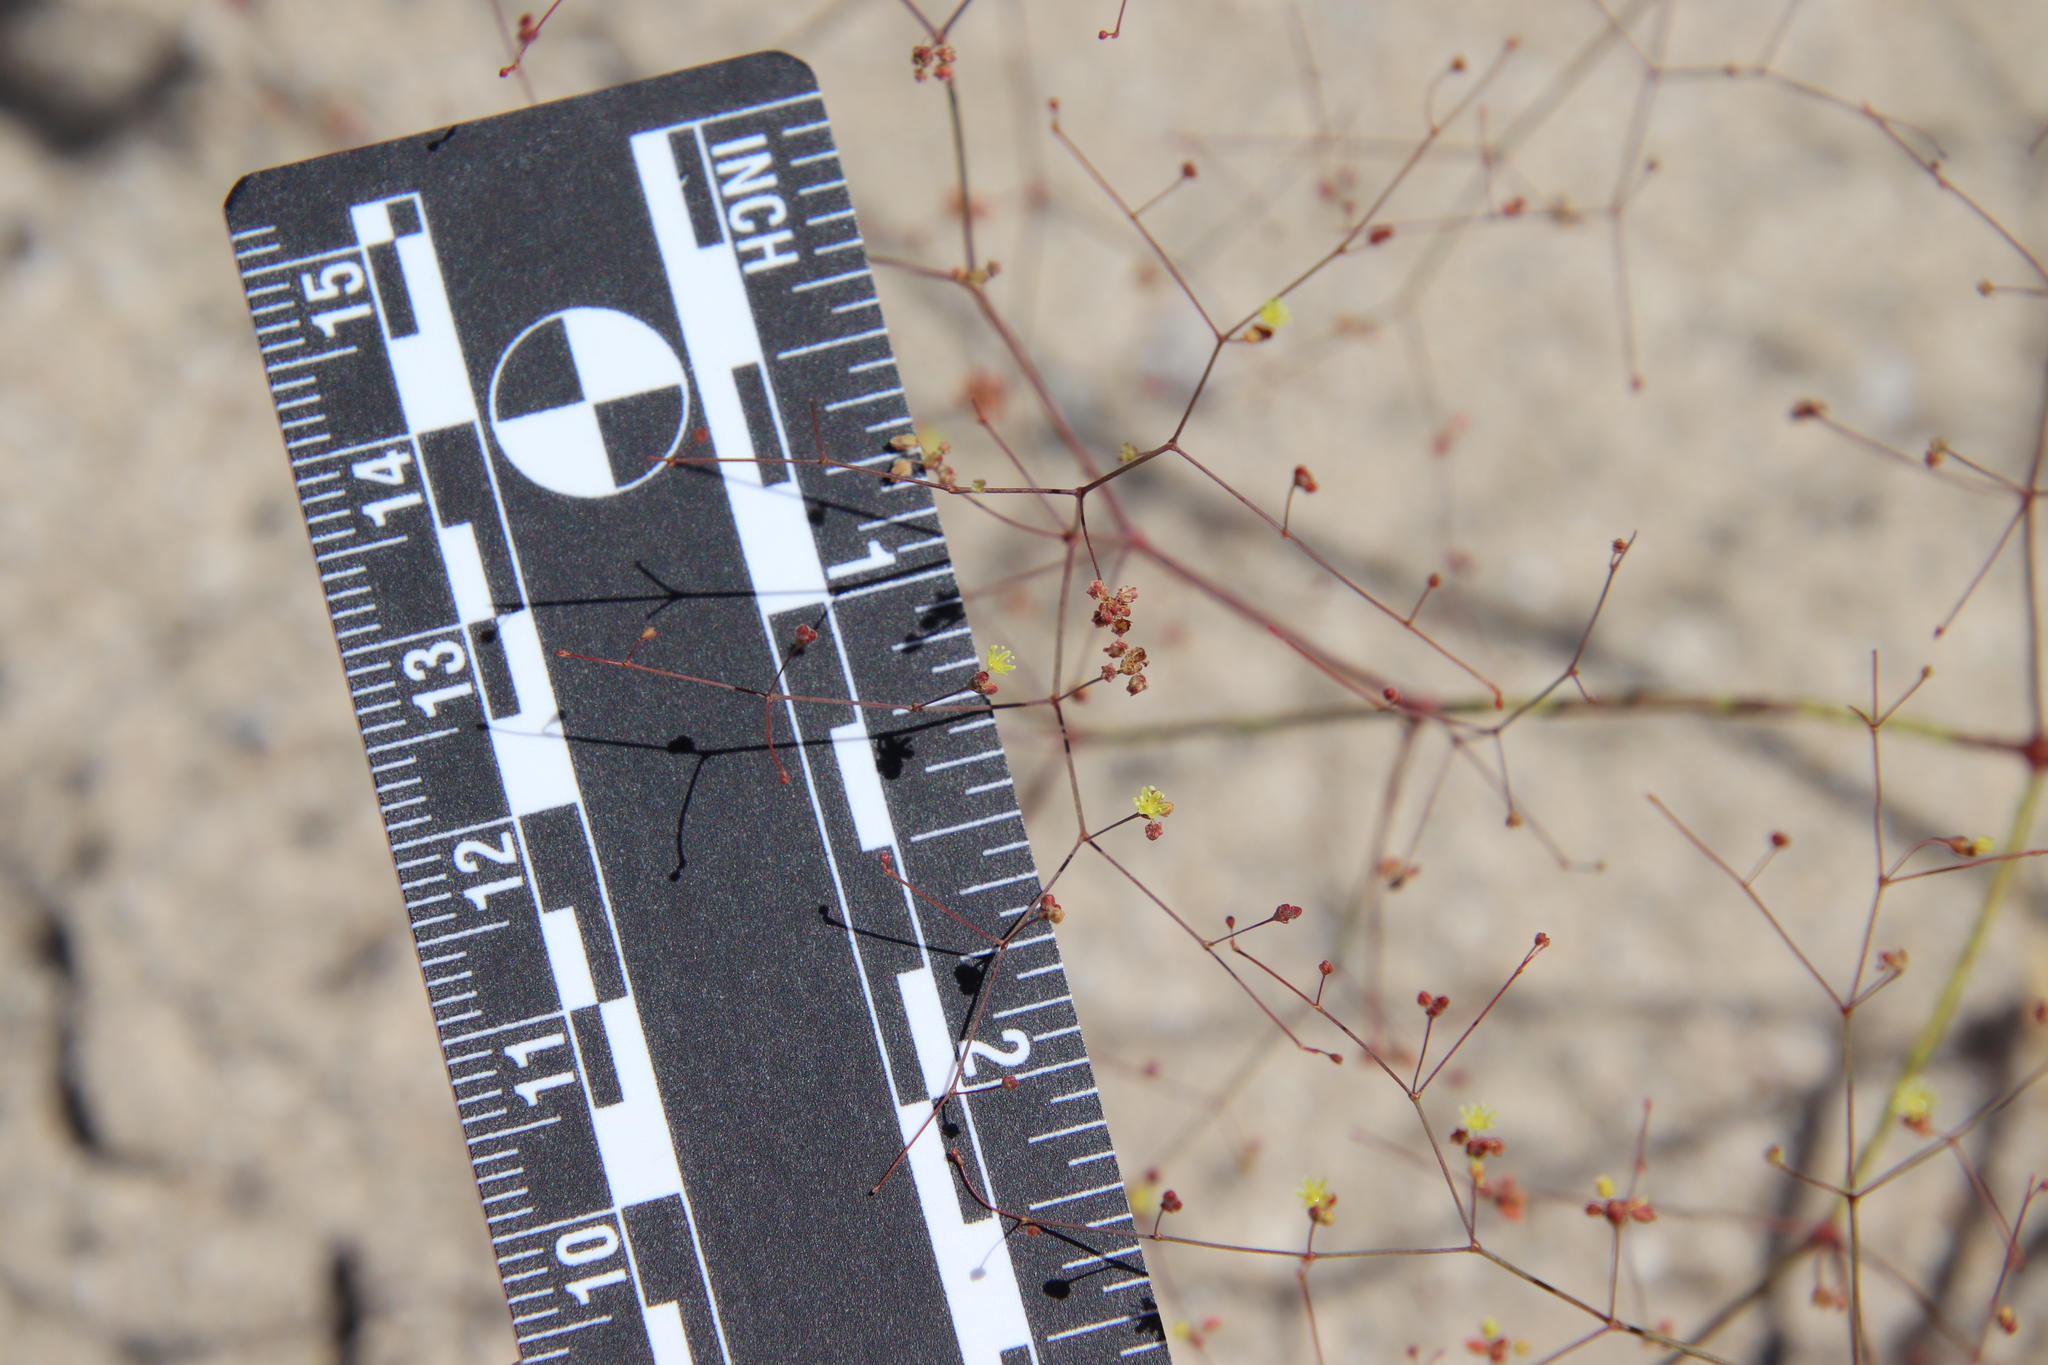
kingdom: Plantae
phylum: Tracheophyta
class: Magnoliopsida
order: Caryophyllales
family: Polygonaceae
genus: Eriogonum
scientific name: Eriogonum thomasii
